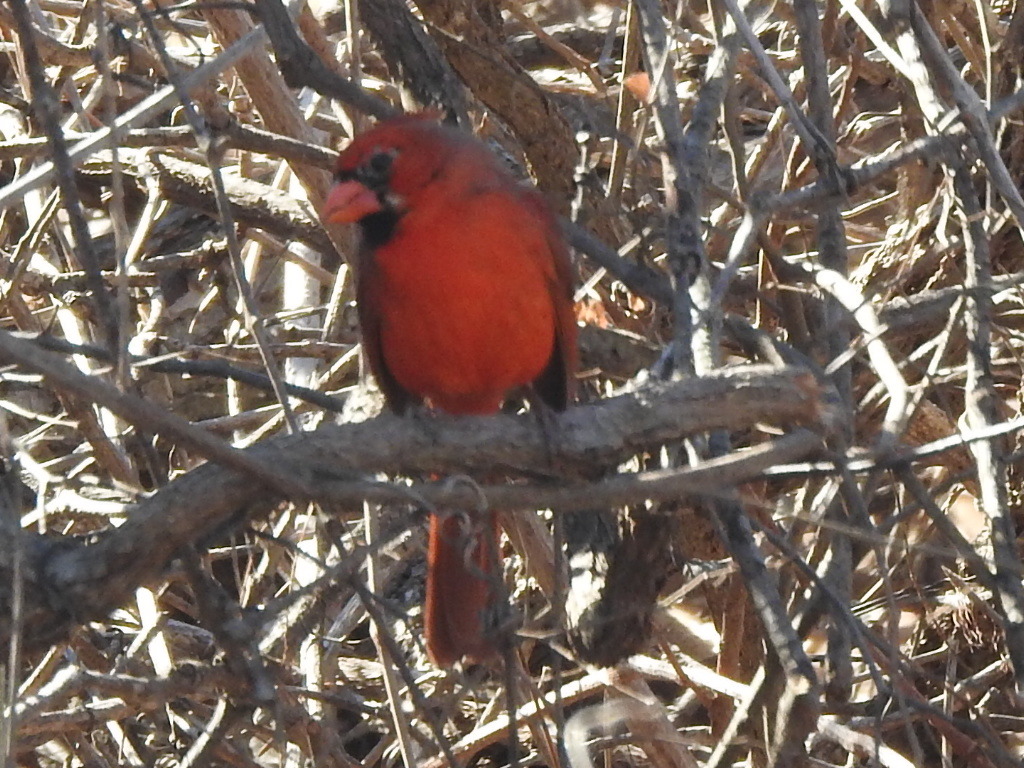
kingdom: Animalia
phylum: Chordata
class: Aves
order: Passeriformes
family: Cardinalidae
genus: Cardinalis
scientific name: Cardinalis cardinalis
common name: Northern cardinal
